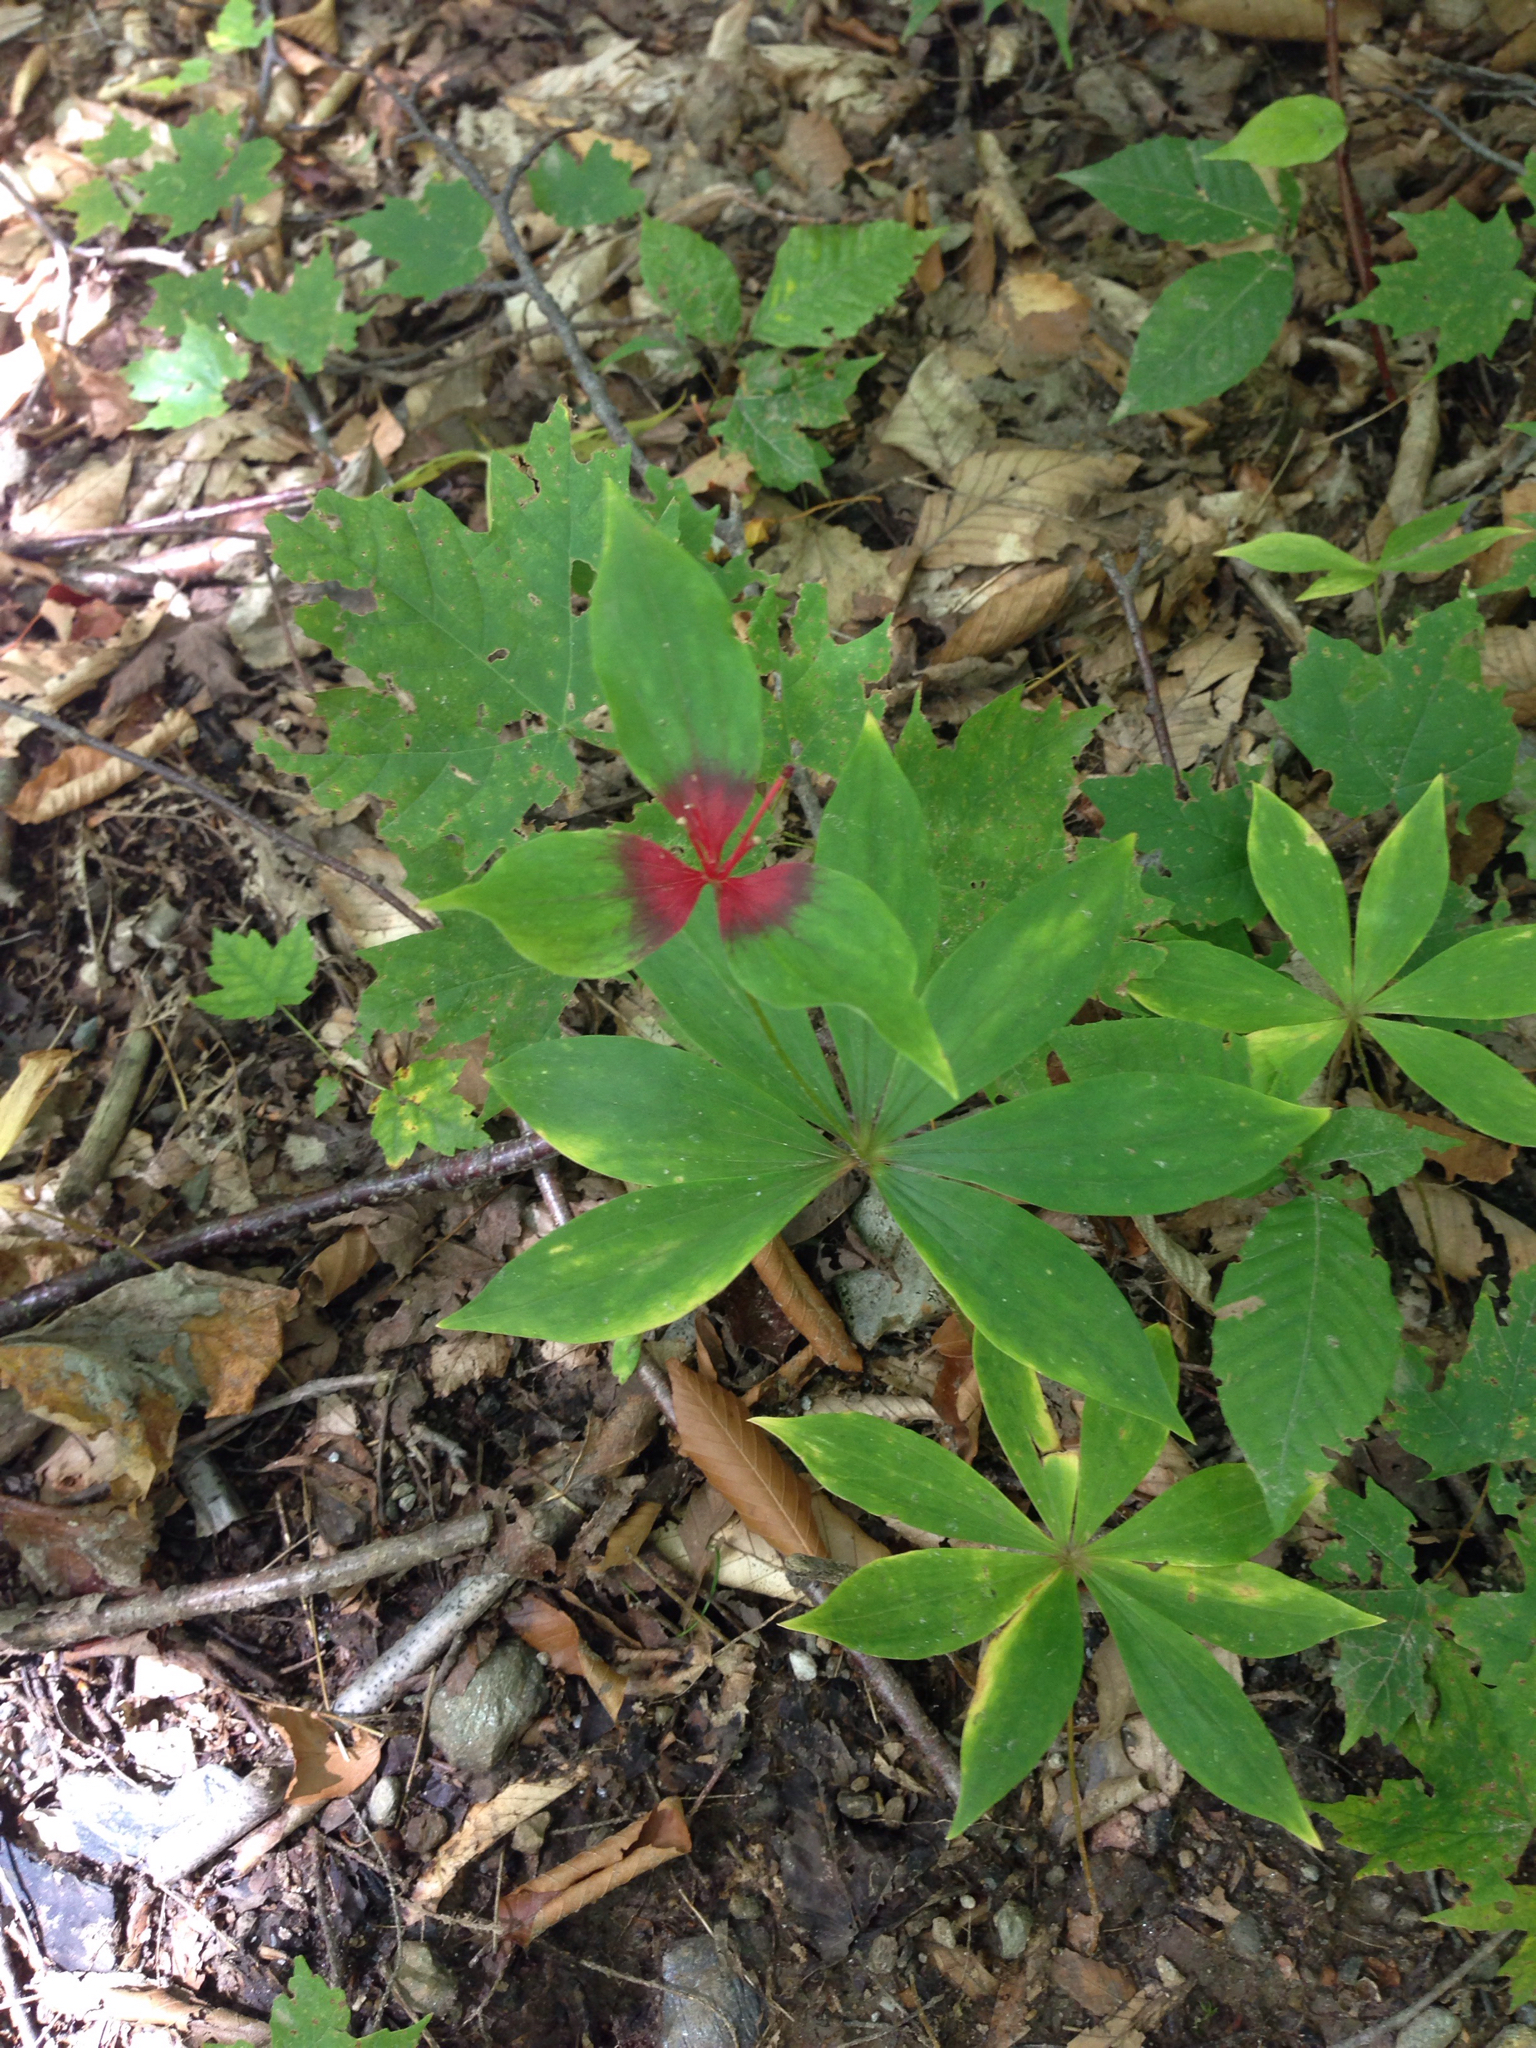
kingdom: Plantae
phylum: Tracheophyta
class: Liliopsida
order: Liliales
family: Liliaceae
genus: Medeola
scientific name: Medeola virginiana
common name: Indian cucumber-root
